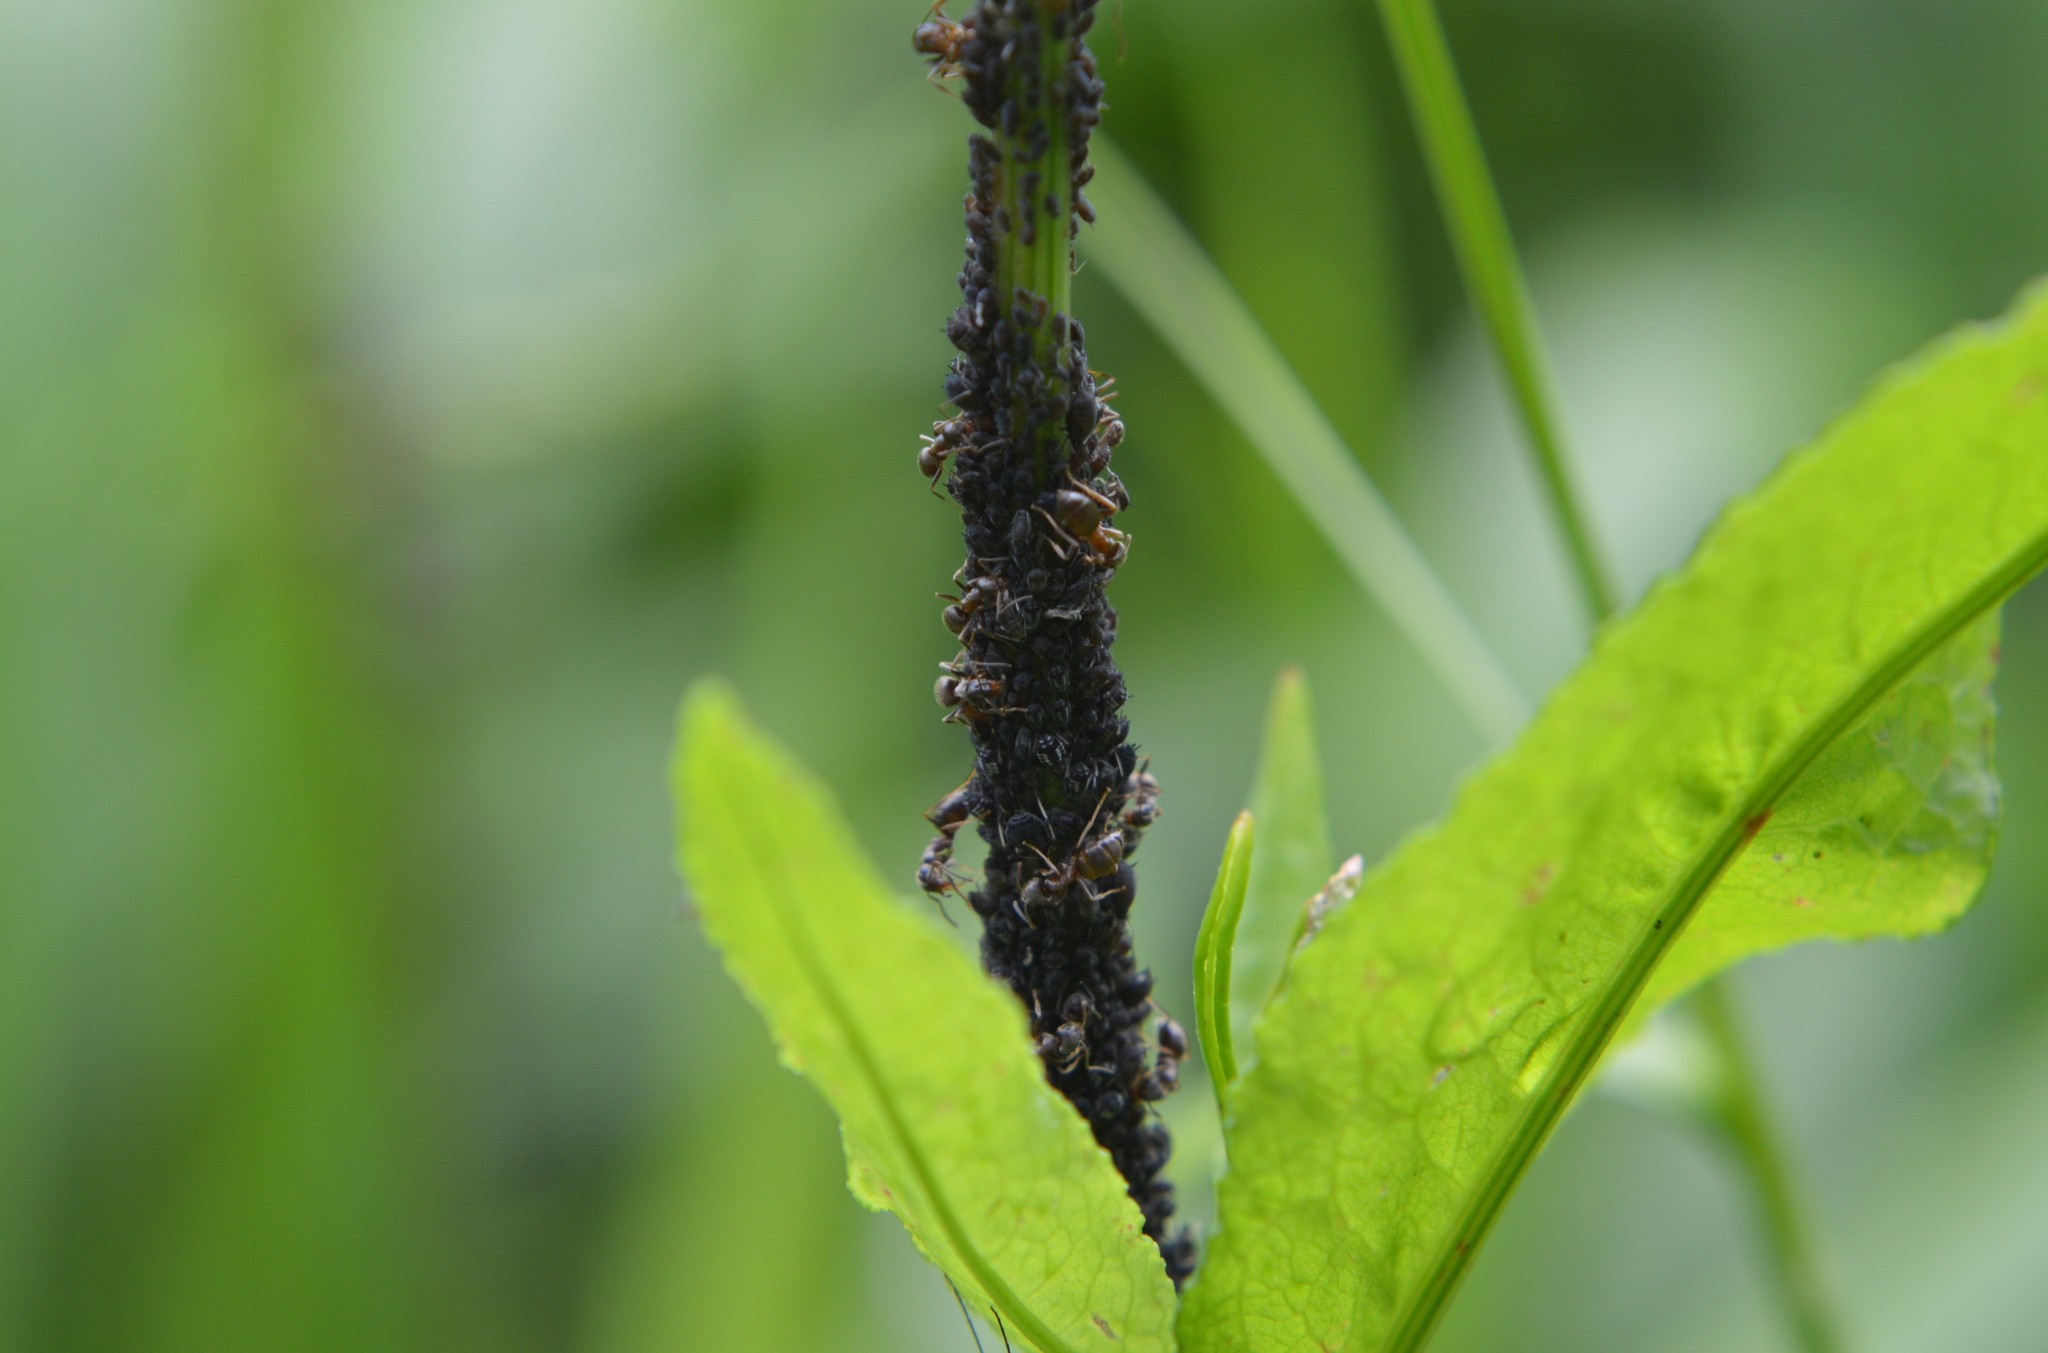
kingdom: Animalia
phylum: Arthropoda
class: Insecta
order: Hymenoptera
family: Formicidae
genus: Lasius
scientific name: Lasius
